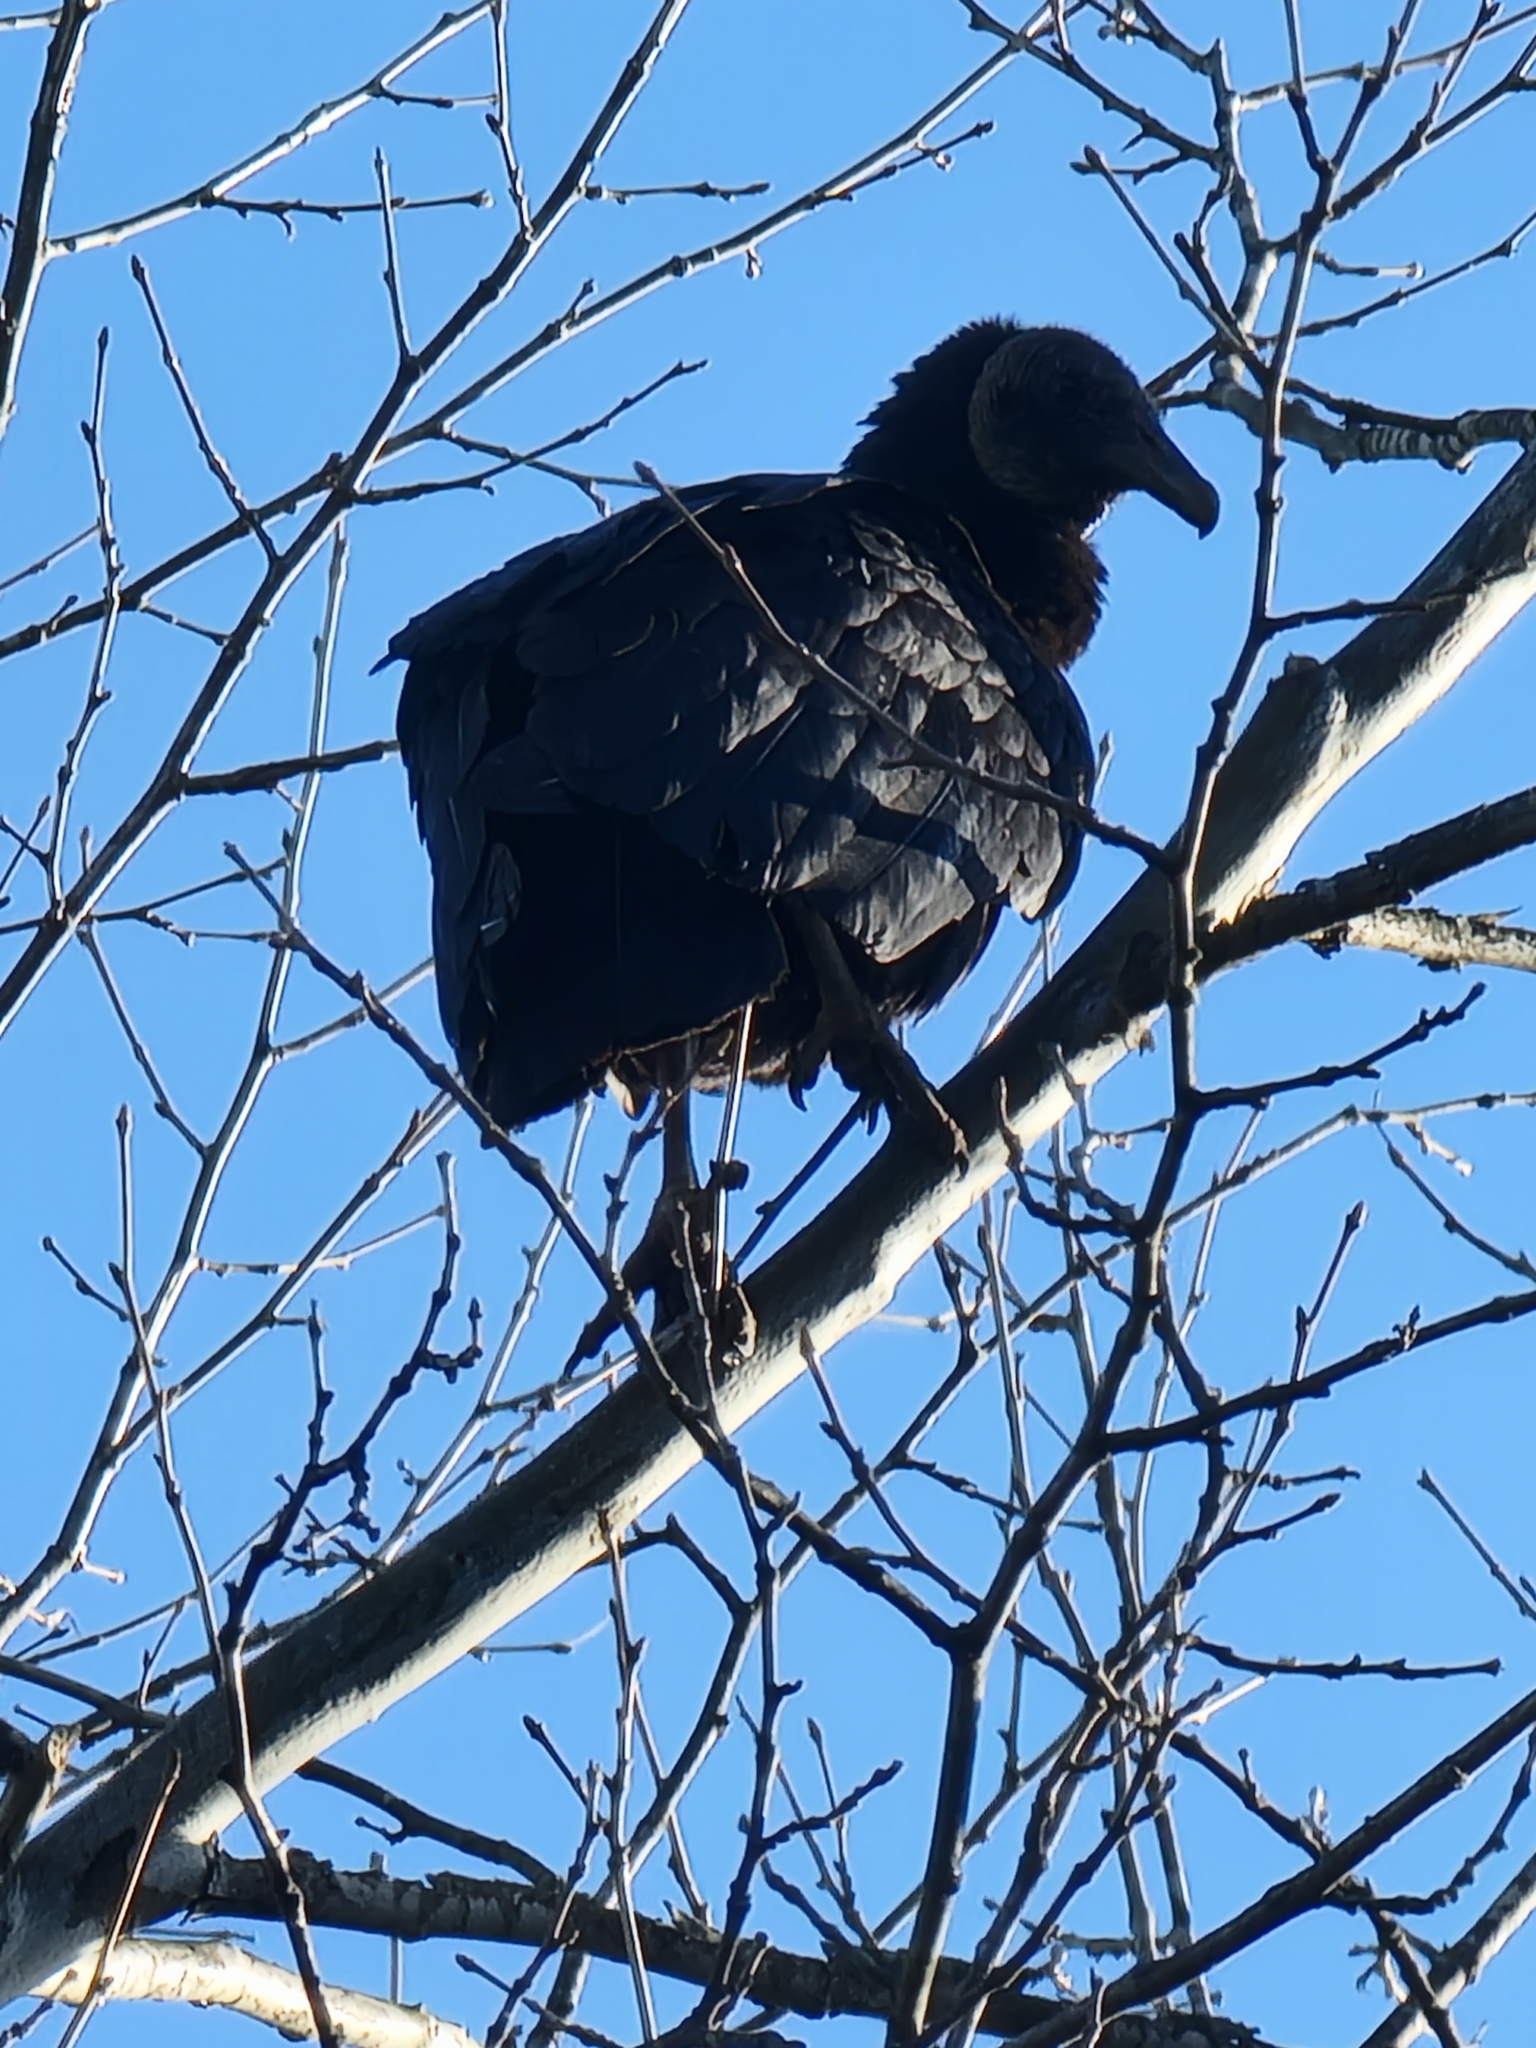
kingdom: Animalia
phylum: Chordata
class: Aves
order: Accipitriformes
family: Cathartidae
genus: Coragyps
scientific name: Coragyps atratus
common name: Black vulture
